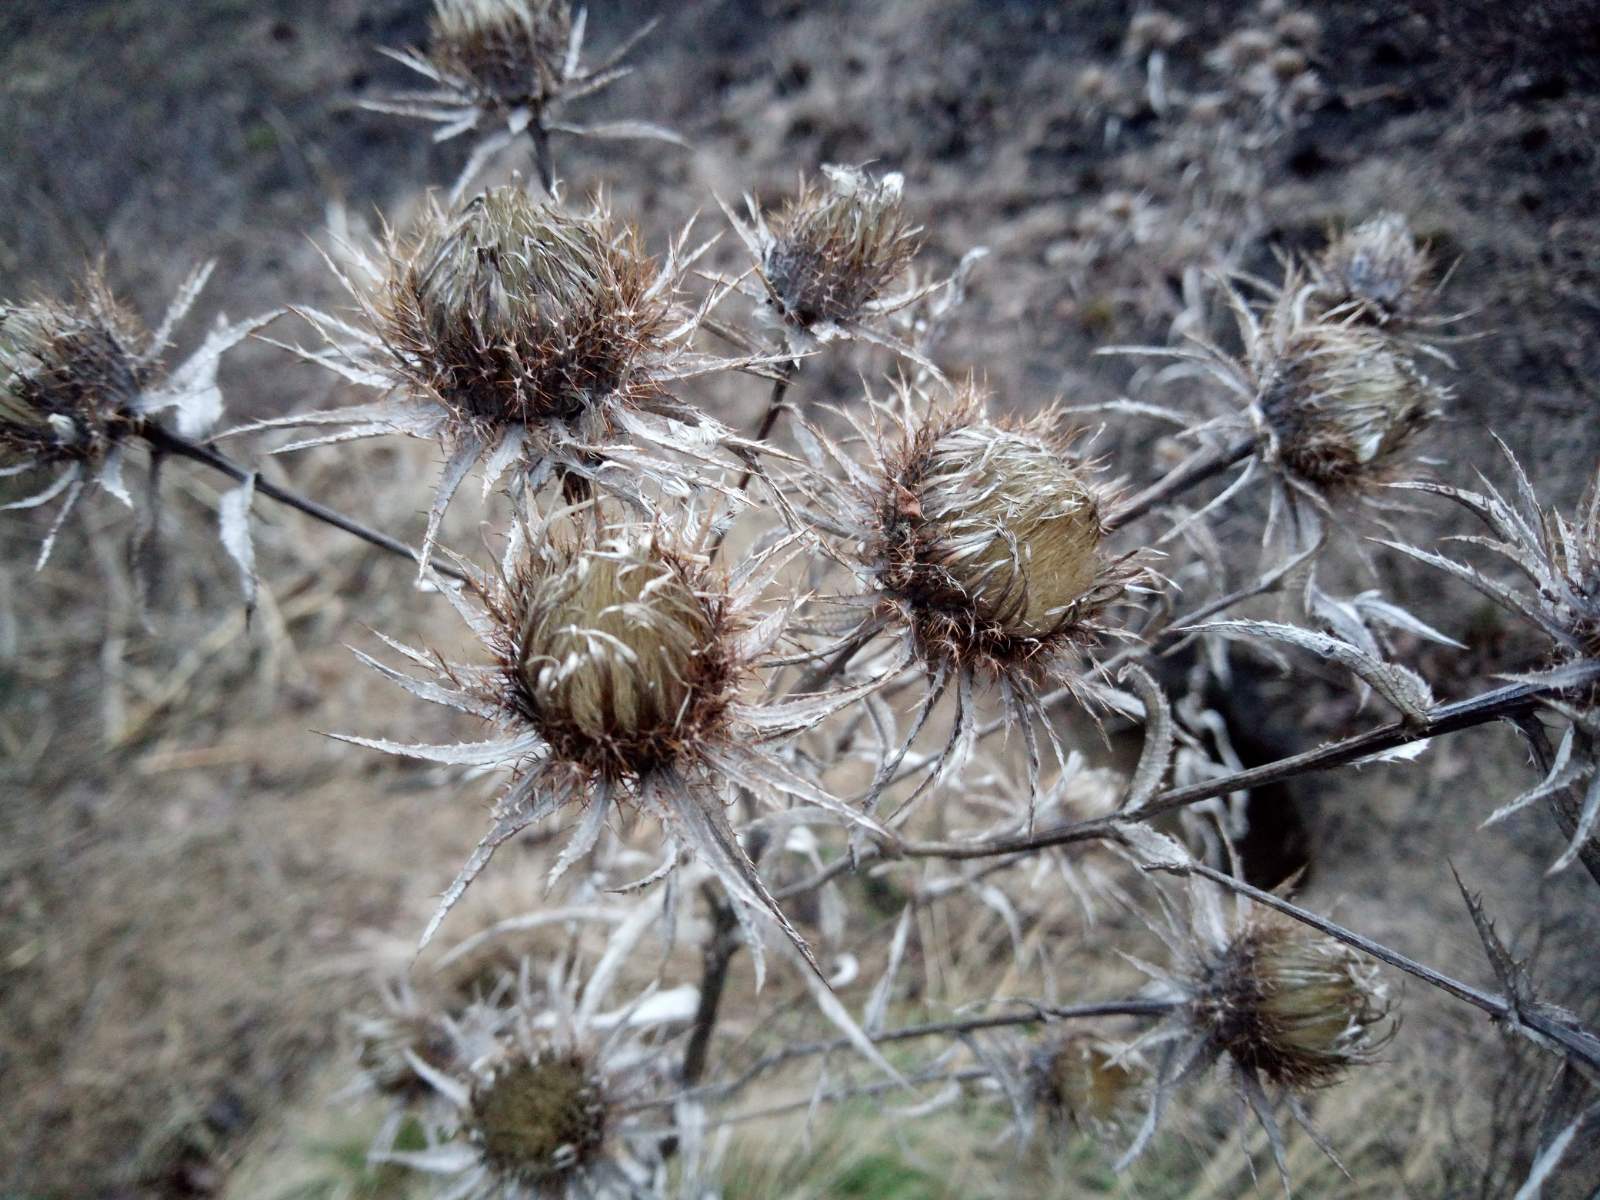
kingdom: Plantae
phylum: Tracheophyta
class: Magnoliopsida
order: Asterales
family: Asteraceae
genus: Carlina
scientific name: Carlina biebersteinii
